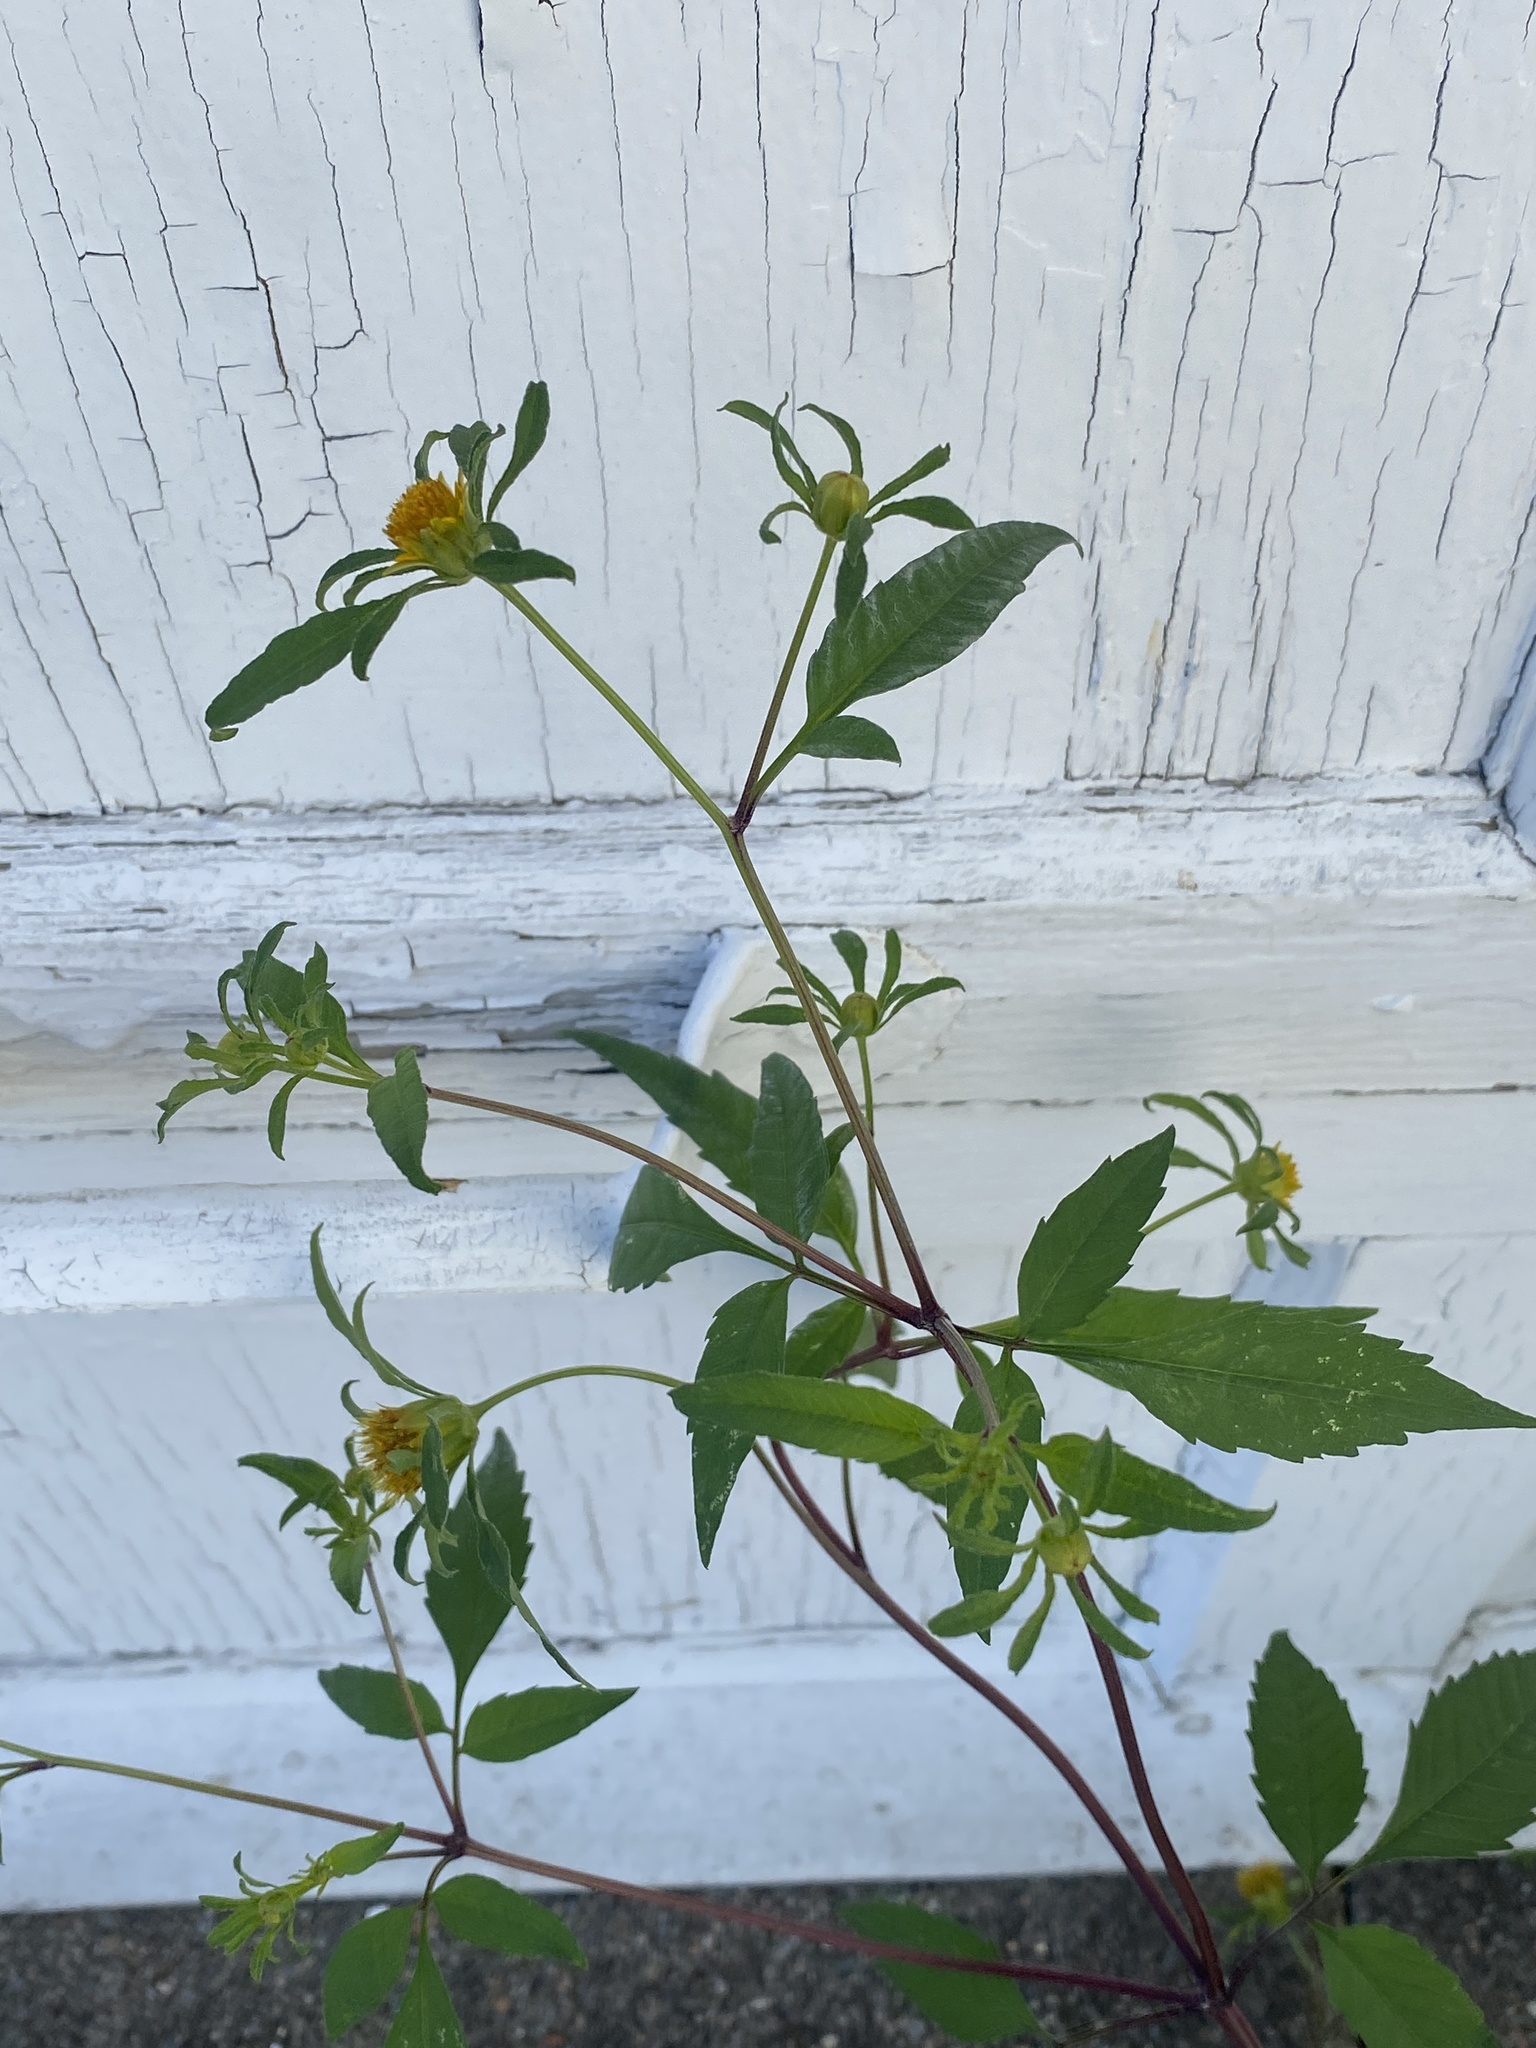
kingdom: Plantae
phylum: Tracheophyta
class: Magnoliopsida
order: Asterales
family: Asteraceae
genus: Bidens
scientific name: Bidens frondosa
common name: Beggarticks
